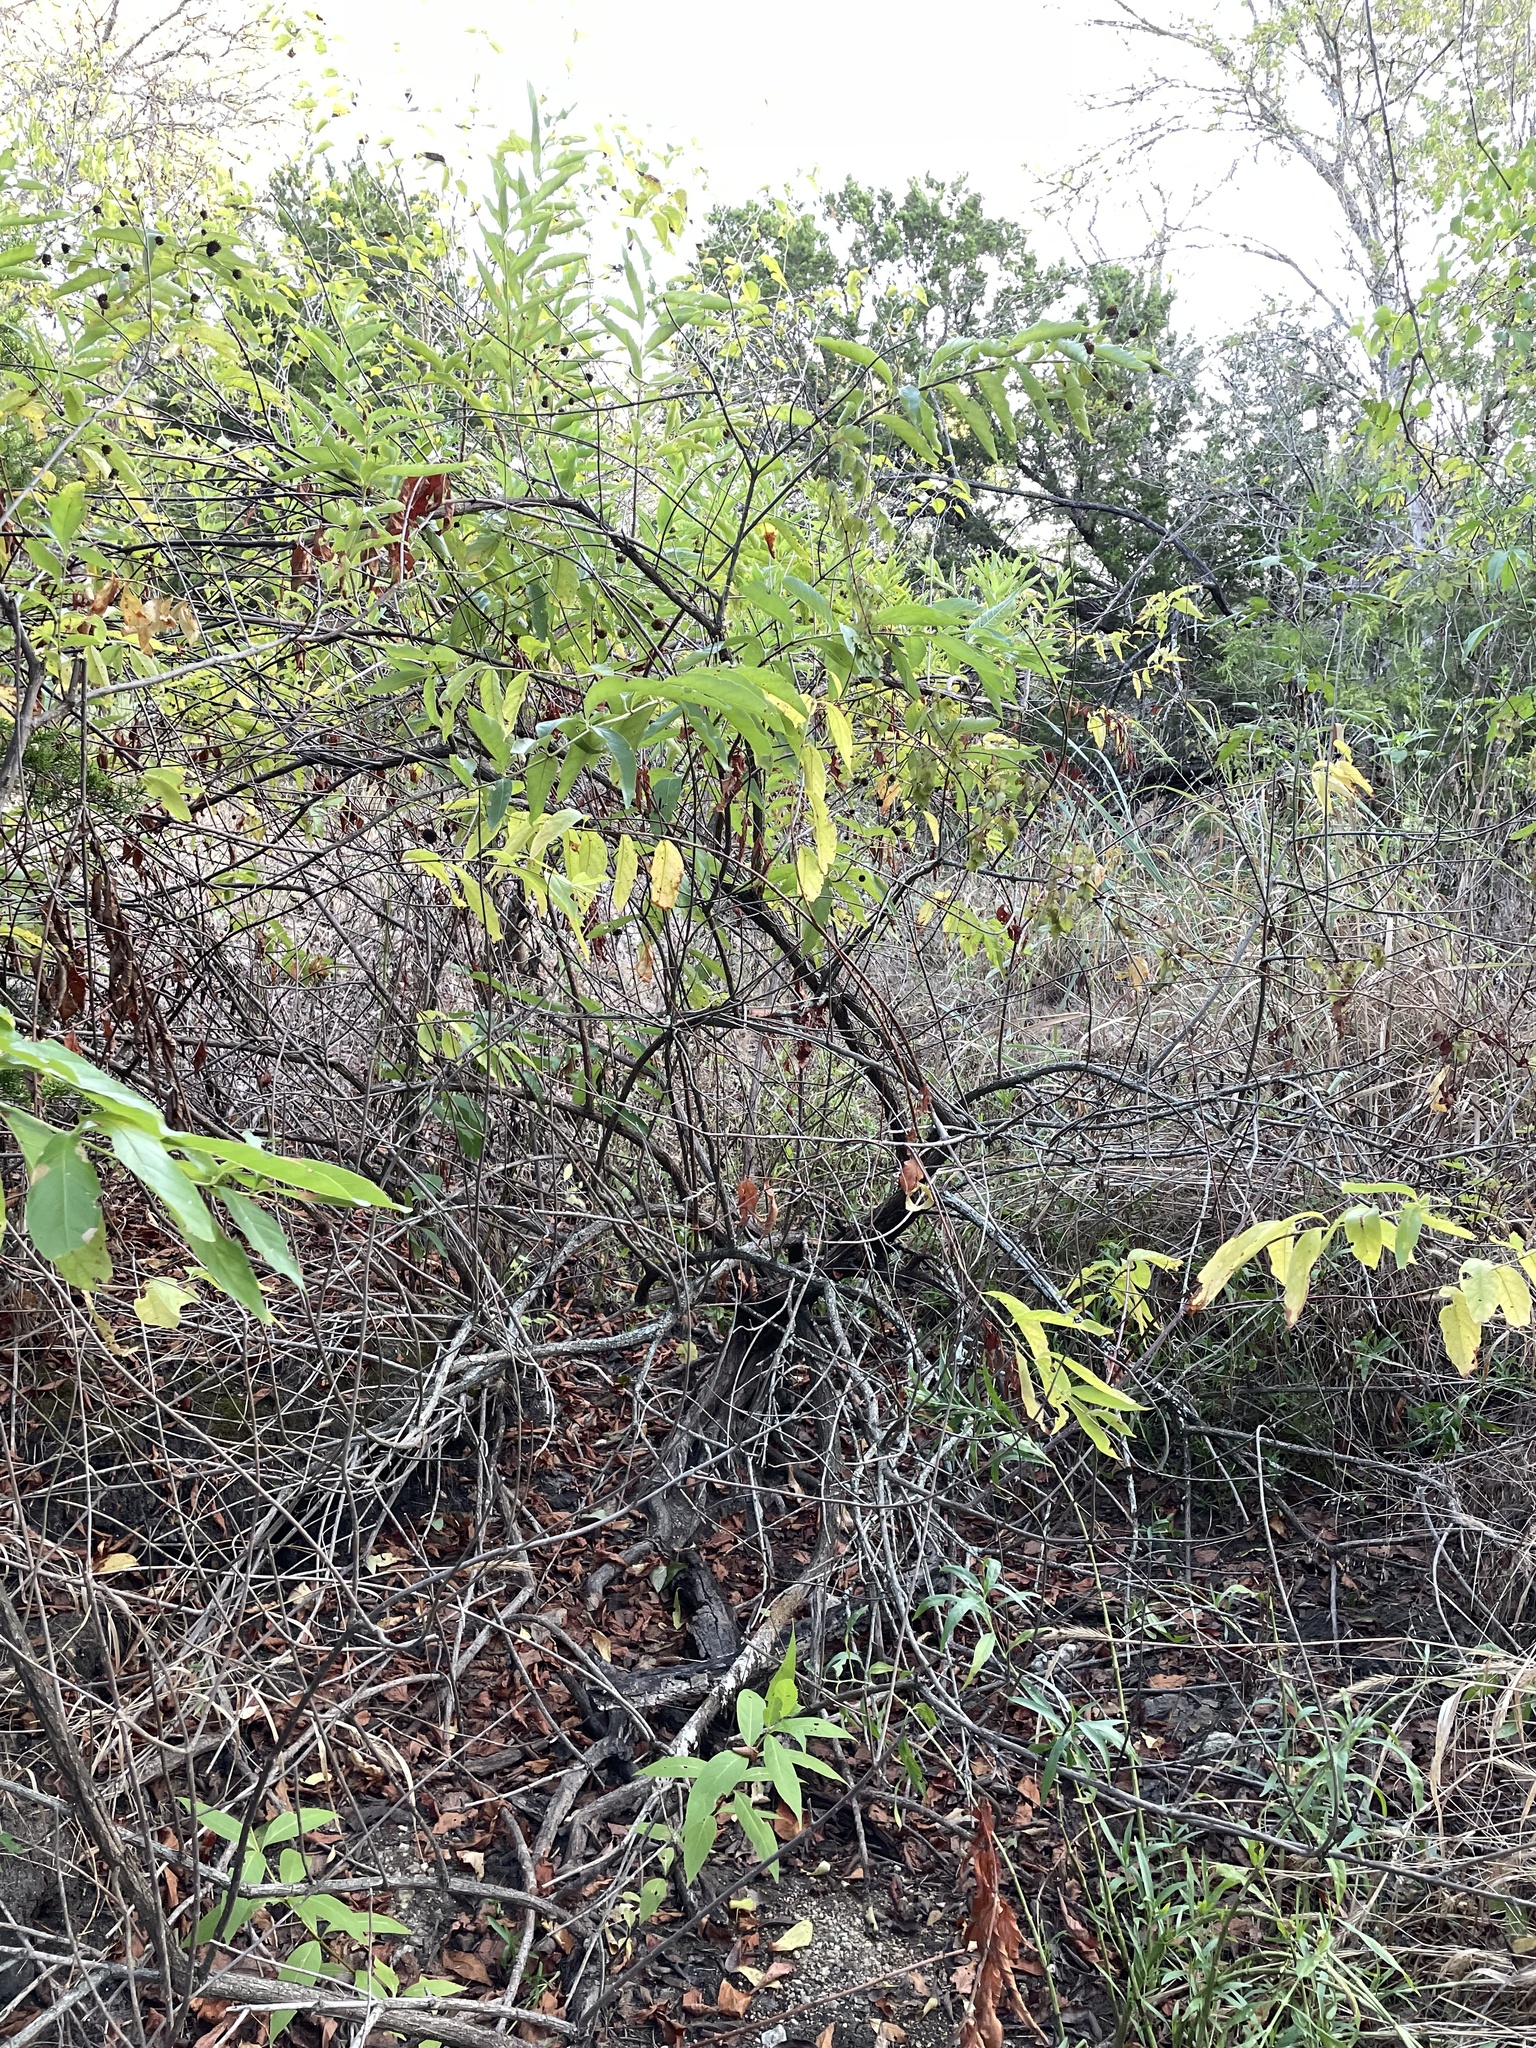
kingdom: Plantae
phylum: Tracheophyta
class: Magnoliopsida
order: Gentianales
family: Rubiaceae
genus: Cephalanthus
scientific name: Cephalanthus occidentalis
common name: Button-willow
